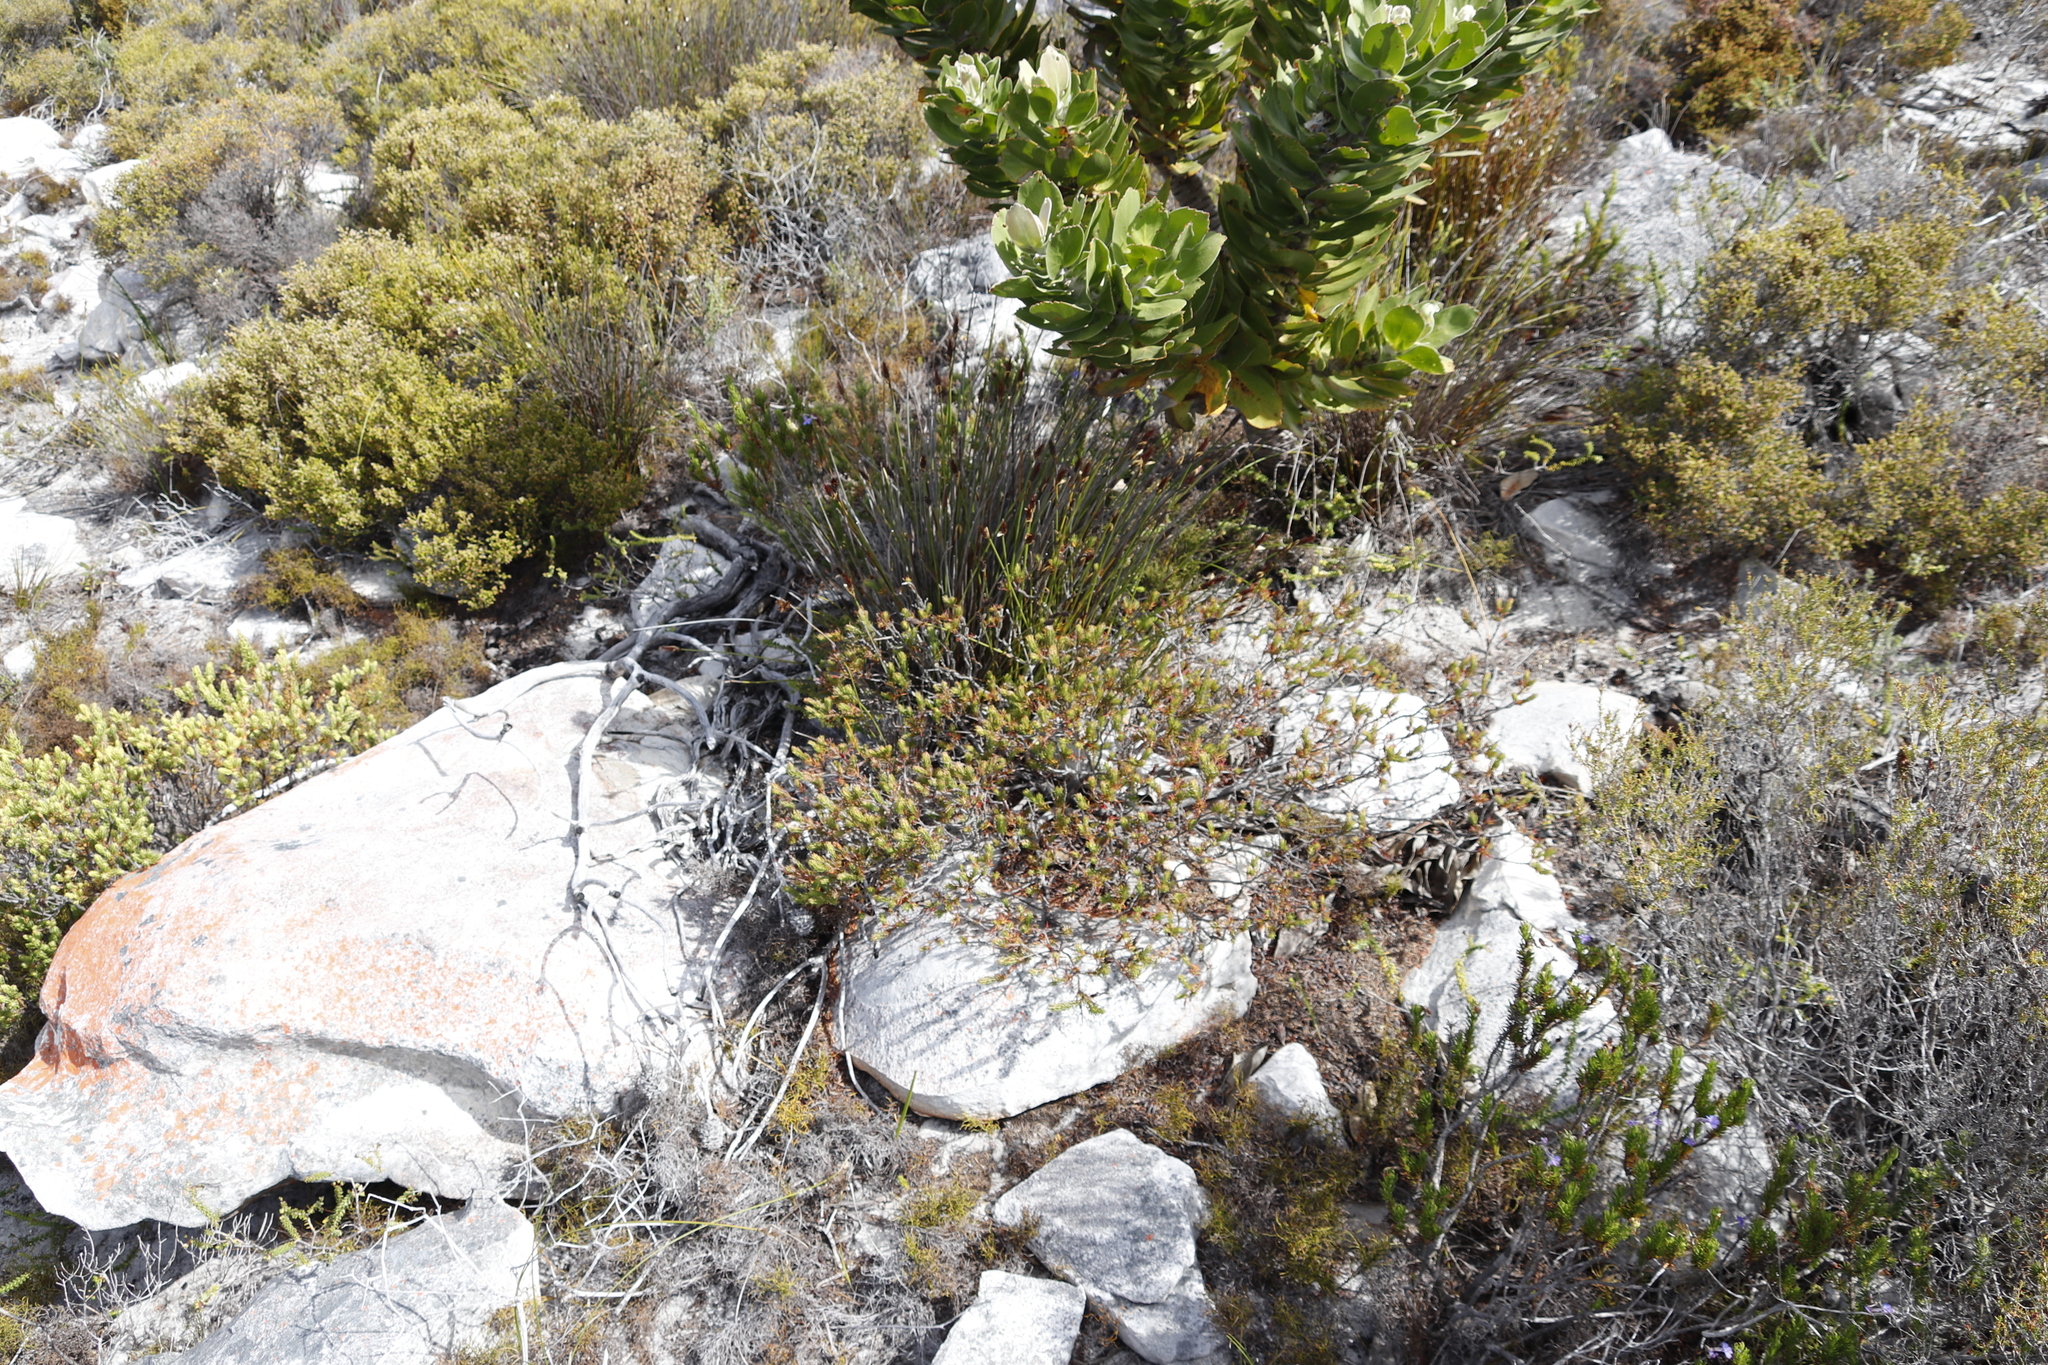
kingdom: Plantae
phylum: Tracheophyta
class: Magnoliopsida
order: Proteales
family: Proteaceae
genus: Leucospermum
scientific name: Leucospermum conocarpodendron
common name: Tree pincushion
